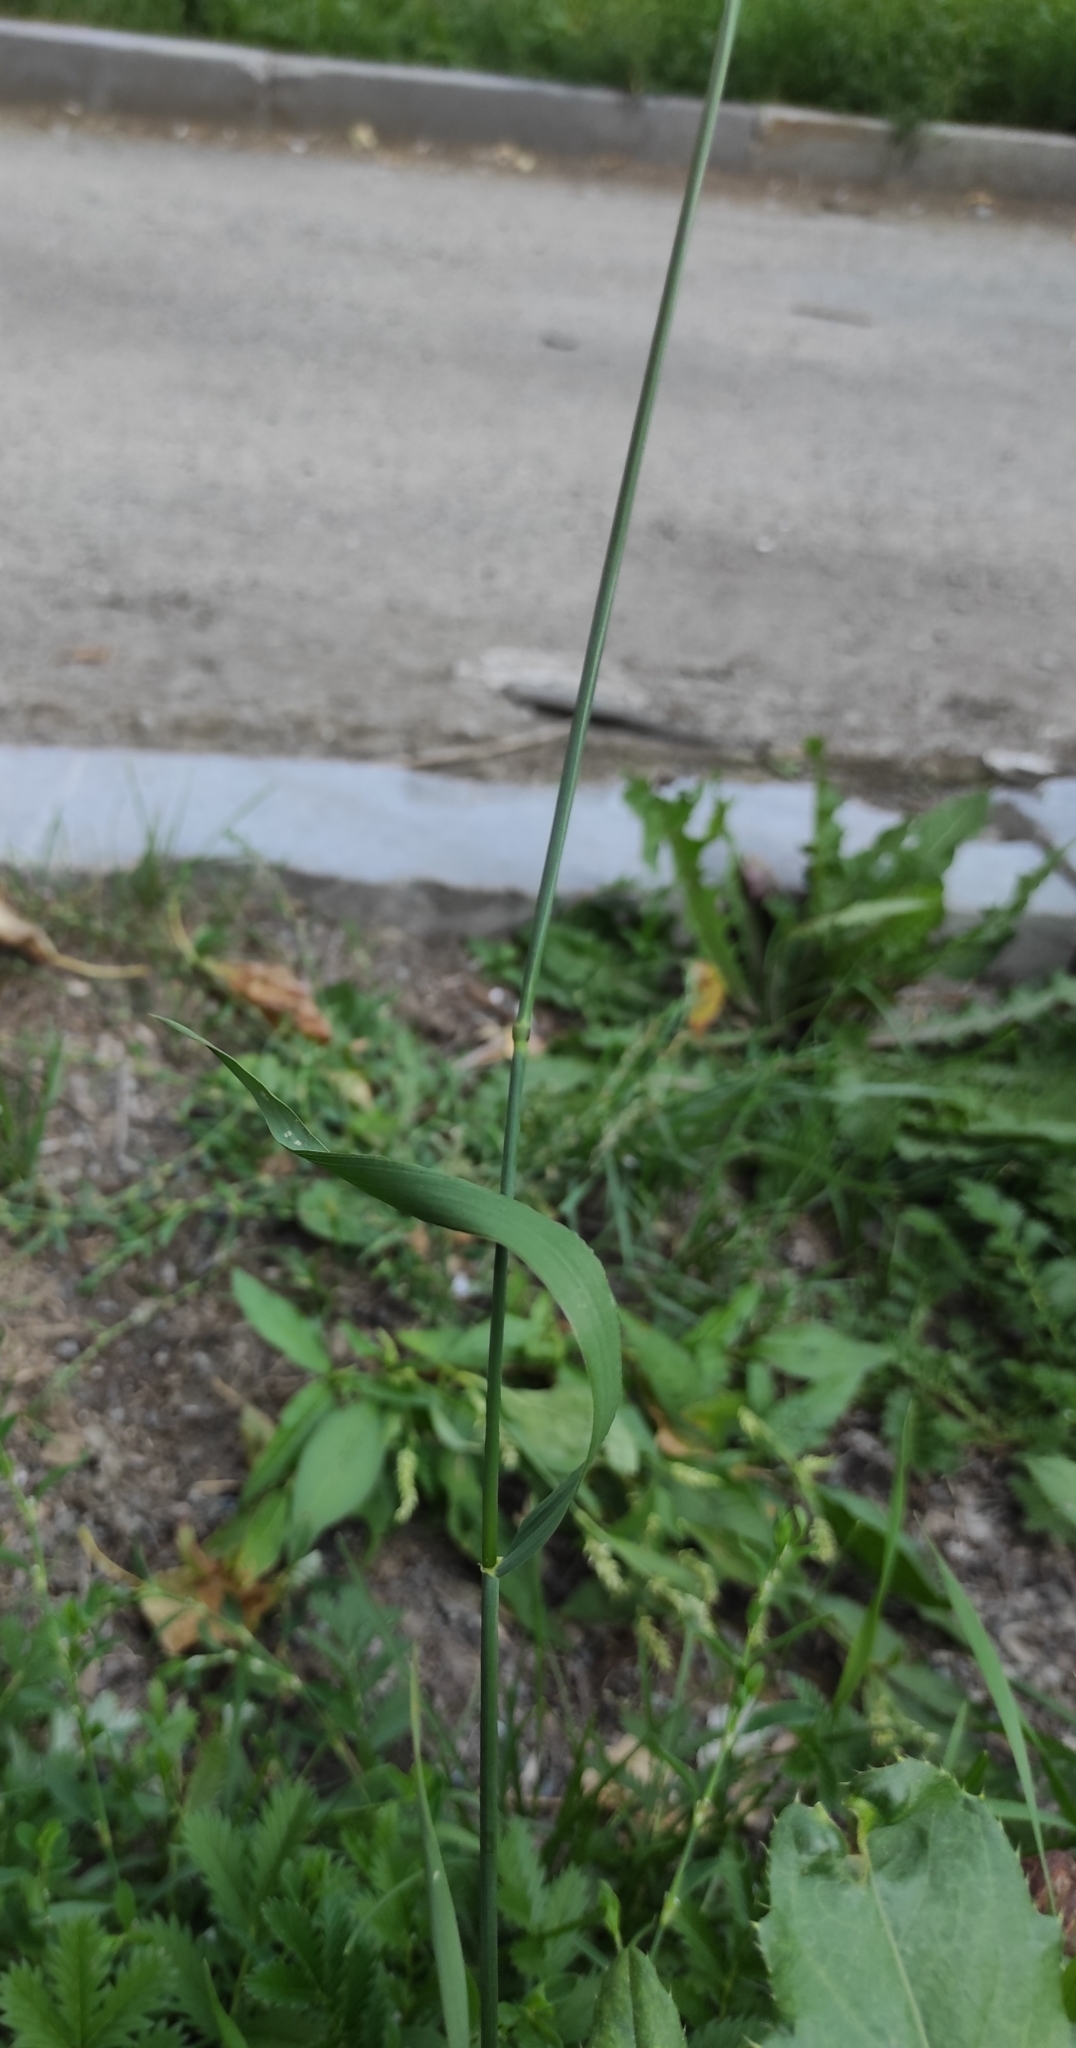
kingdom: Plantae
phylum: Tracheophyta
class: Liliopsida
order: Poales
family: Poaceae
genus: Elymus
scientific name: Elymus repens
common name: Quackgrass
